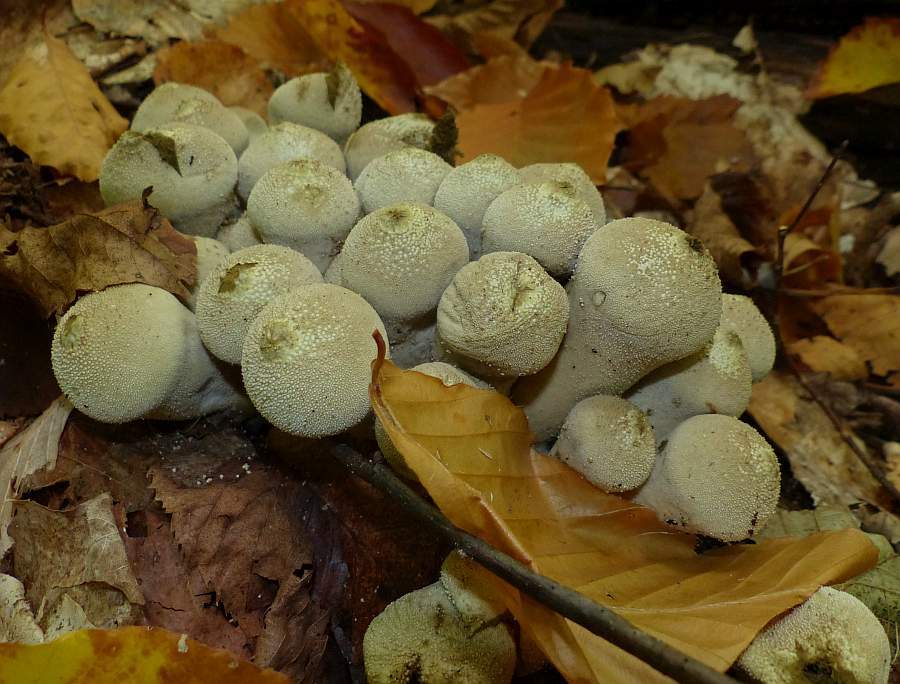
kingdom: Fungi
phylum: Basidiomycota
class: Agaricomycetes
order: Agaricales
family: Lycoperdaceae
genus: Lycoperdon
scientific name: Lycoperdon perlatum
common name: Common puffball
